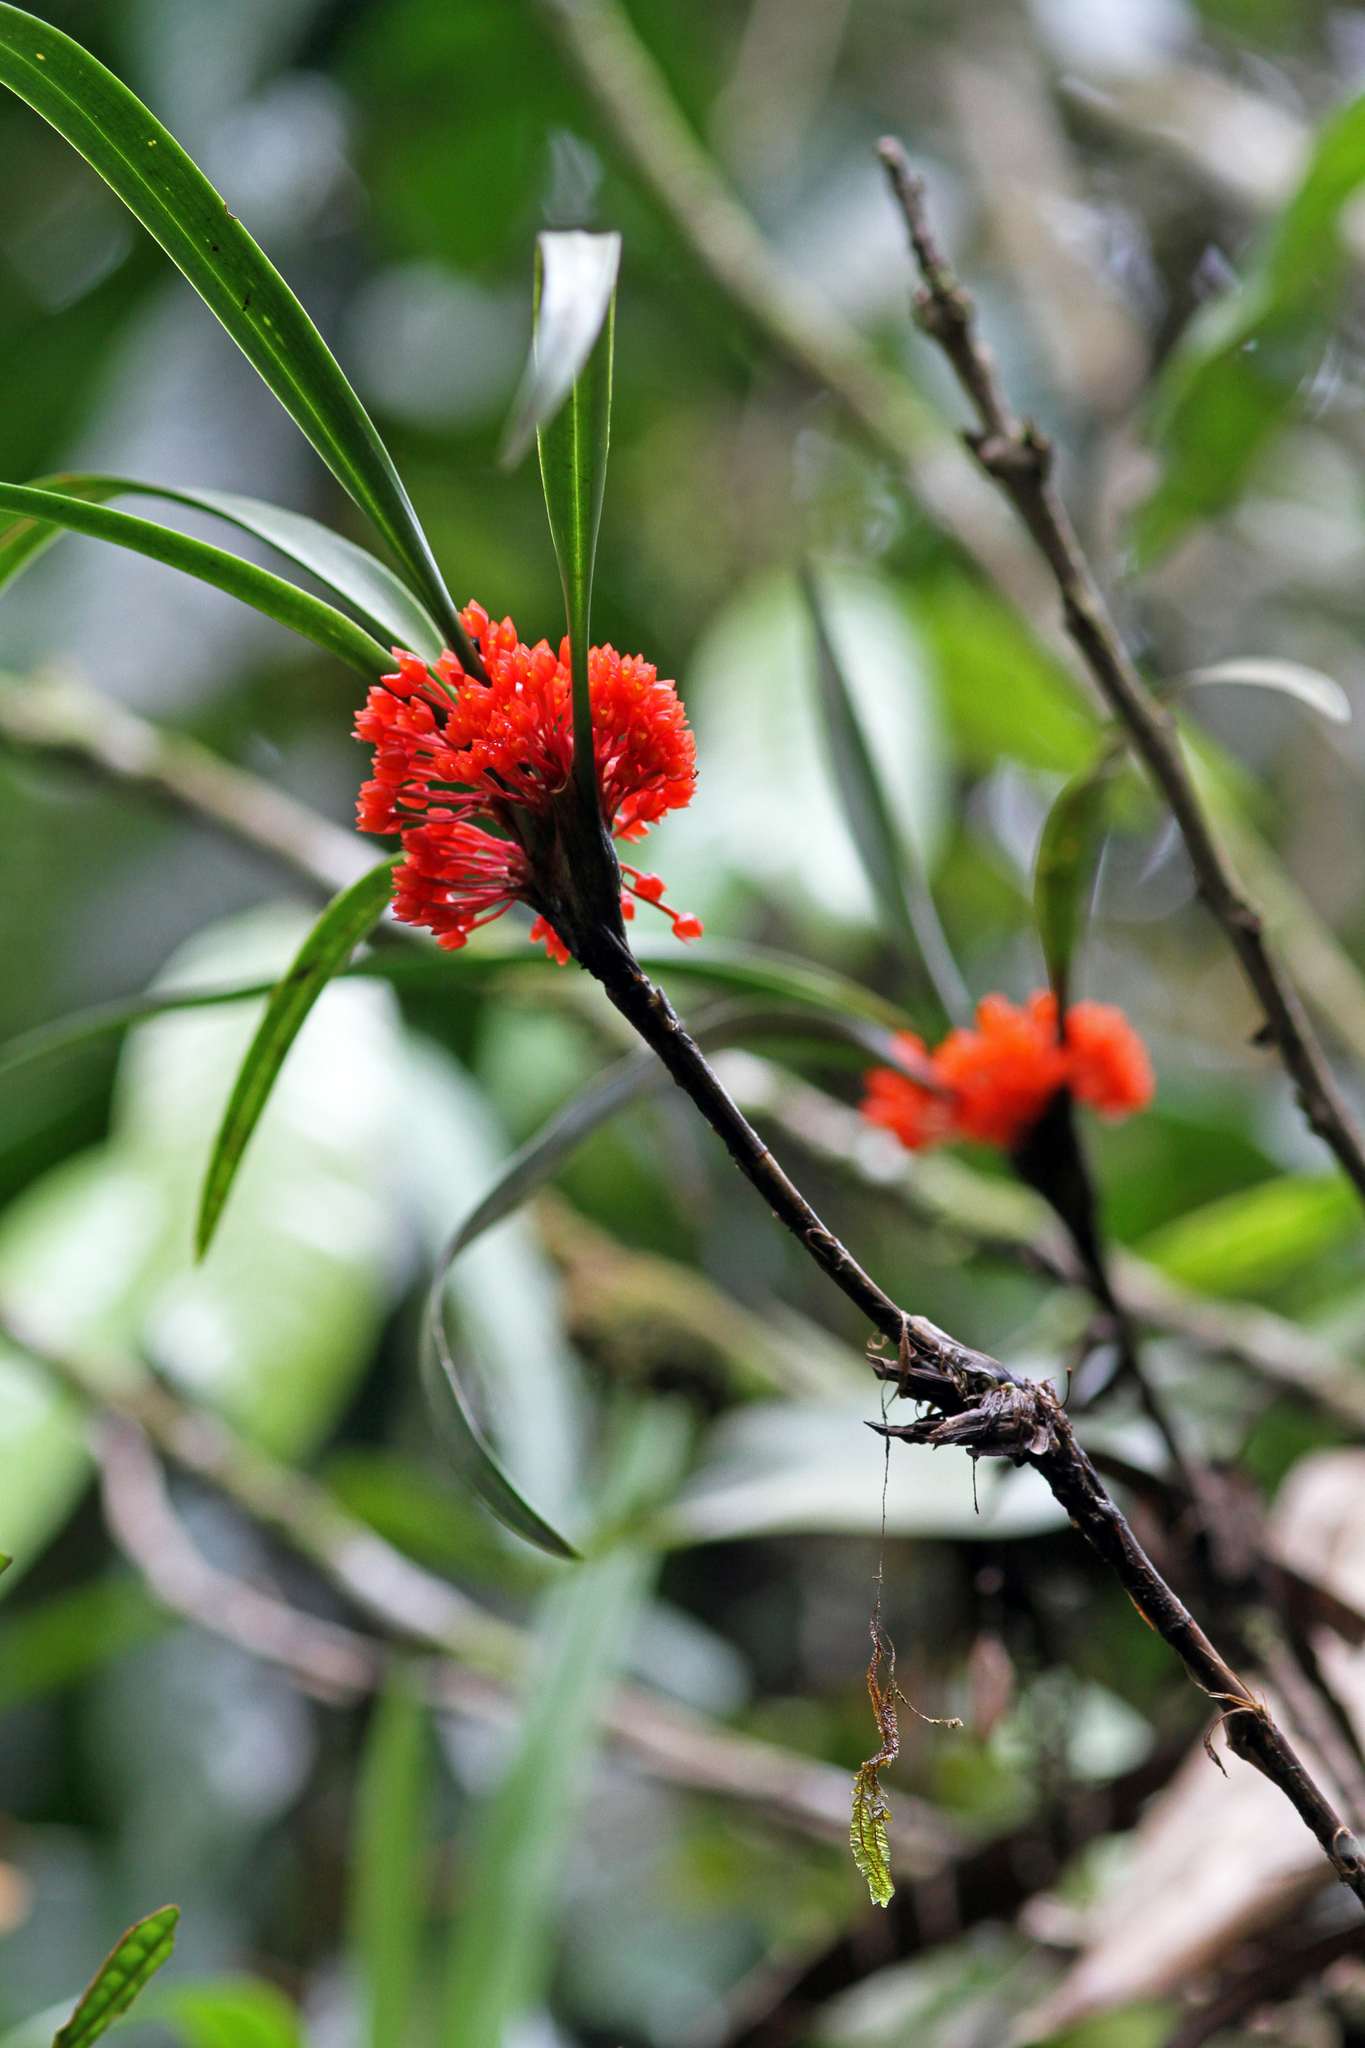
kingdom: Plantae
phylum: Tracheophyta
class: Liliopsida
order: Asparagales
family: Orchidaceae
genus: Maxillaria
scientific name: Maxillaria fulgens
